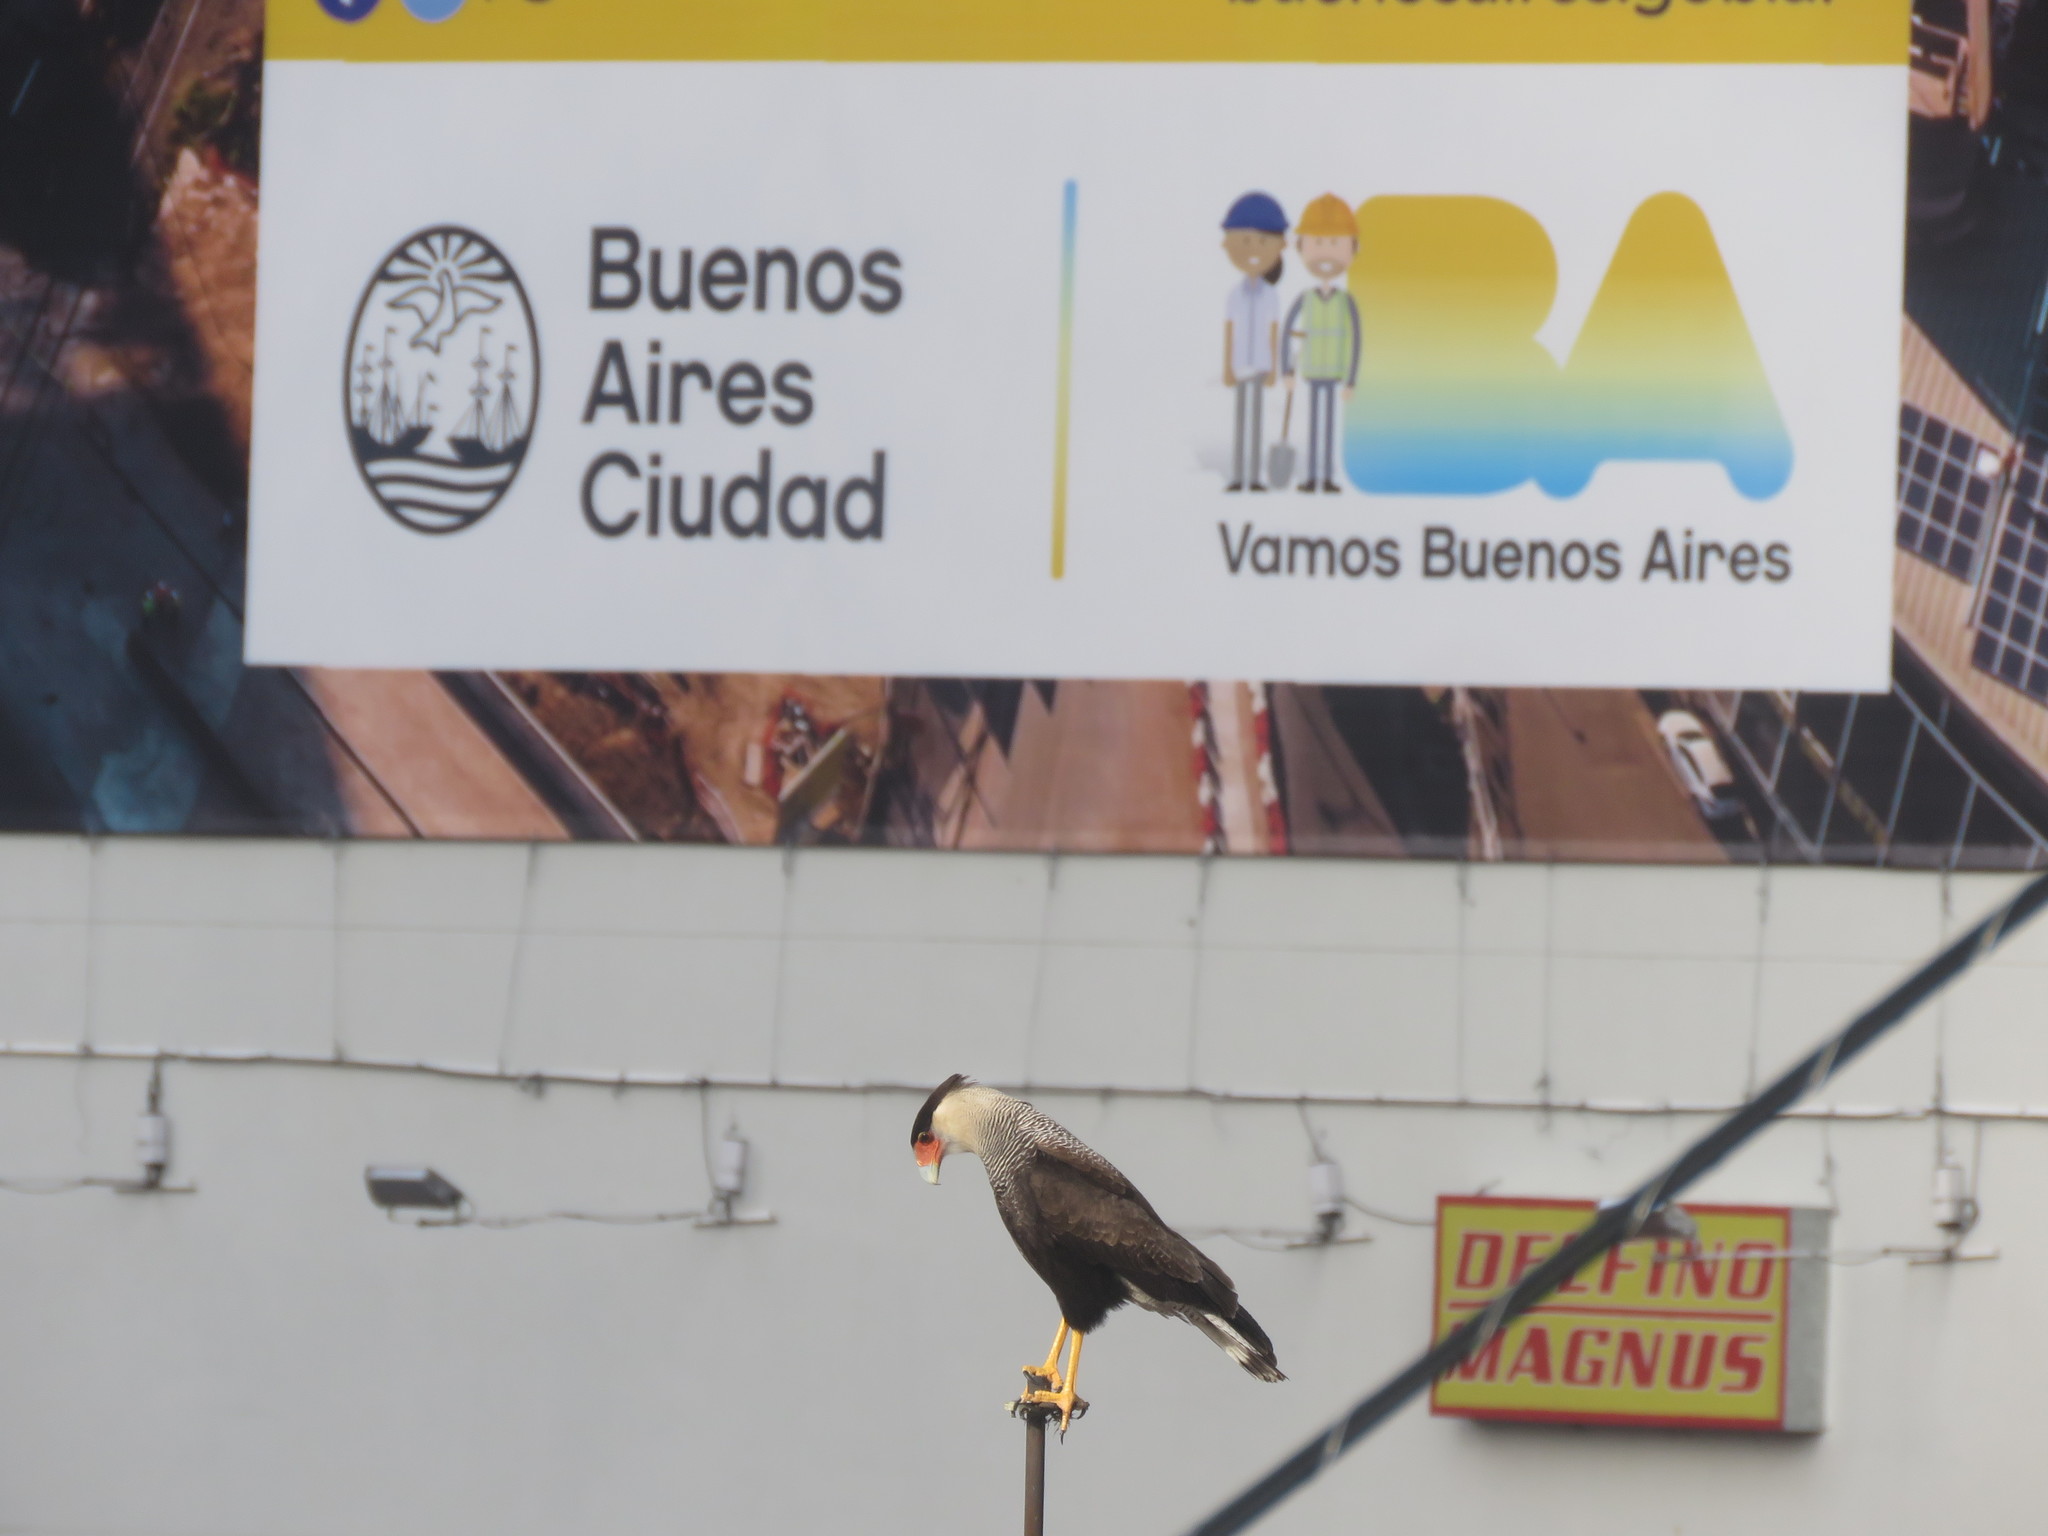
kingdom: Animalia
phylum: Chordata
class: Aves
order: Falconiformes
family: Falconidae
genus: Caracara
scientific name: Caracara plancus
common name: Southern caracara
